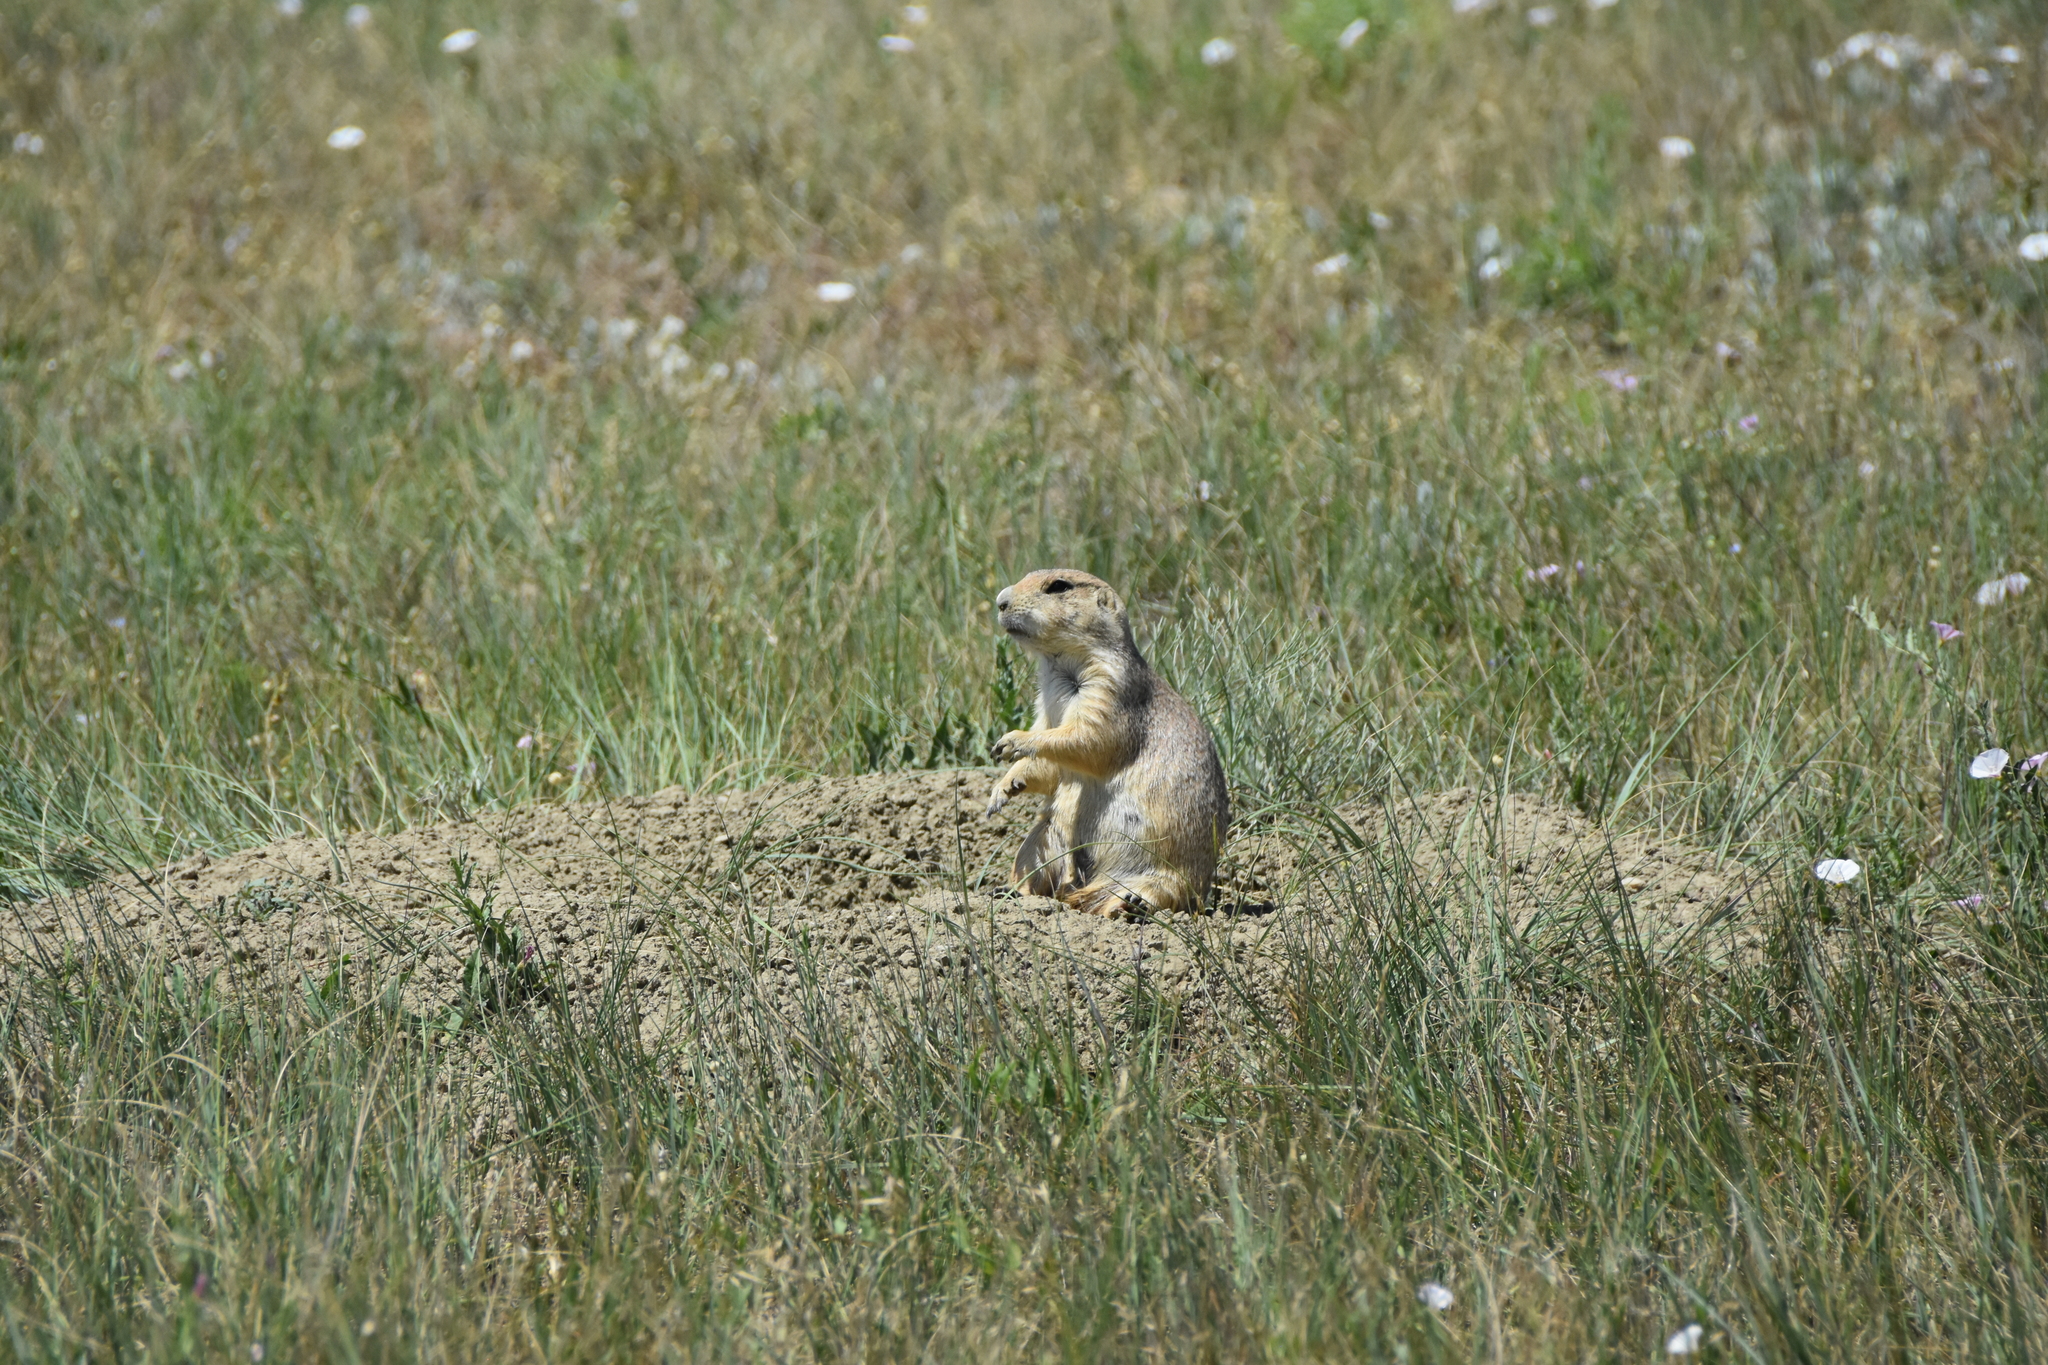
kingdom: Animalia
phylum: Chordata
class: Mammalia
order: Rodentia
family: Sciuridae
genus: Cynomys
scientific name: Cynomys ludovicianus
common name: Black-tailed prairie dog
